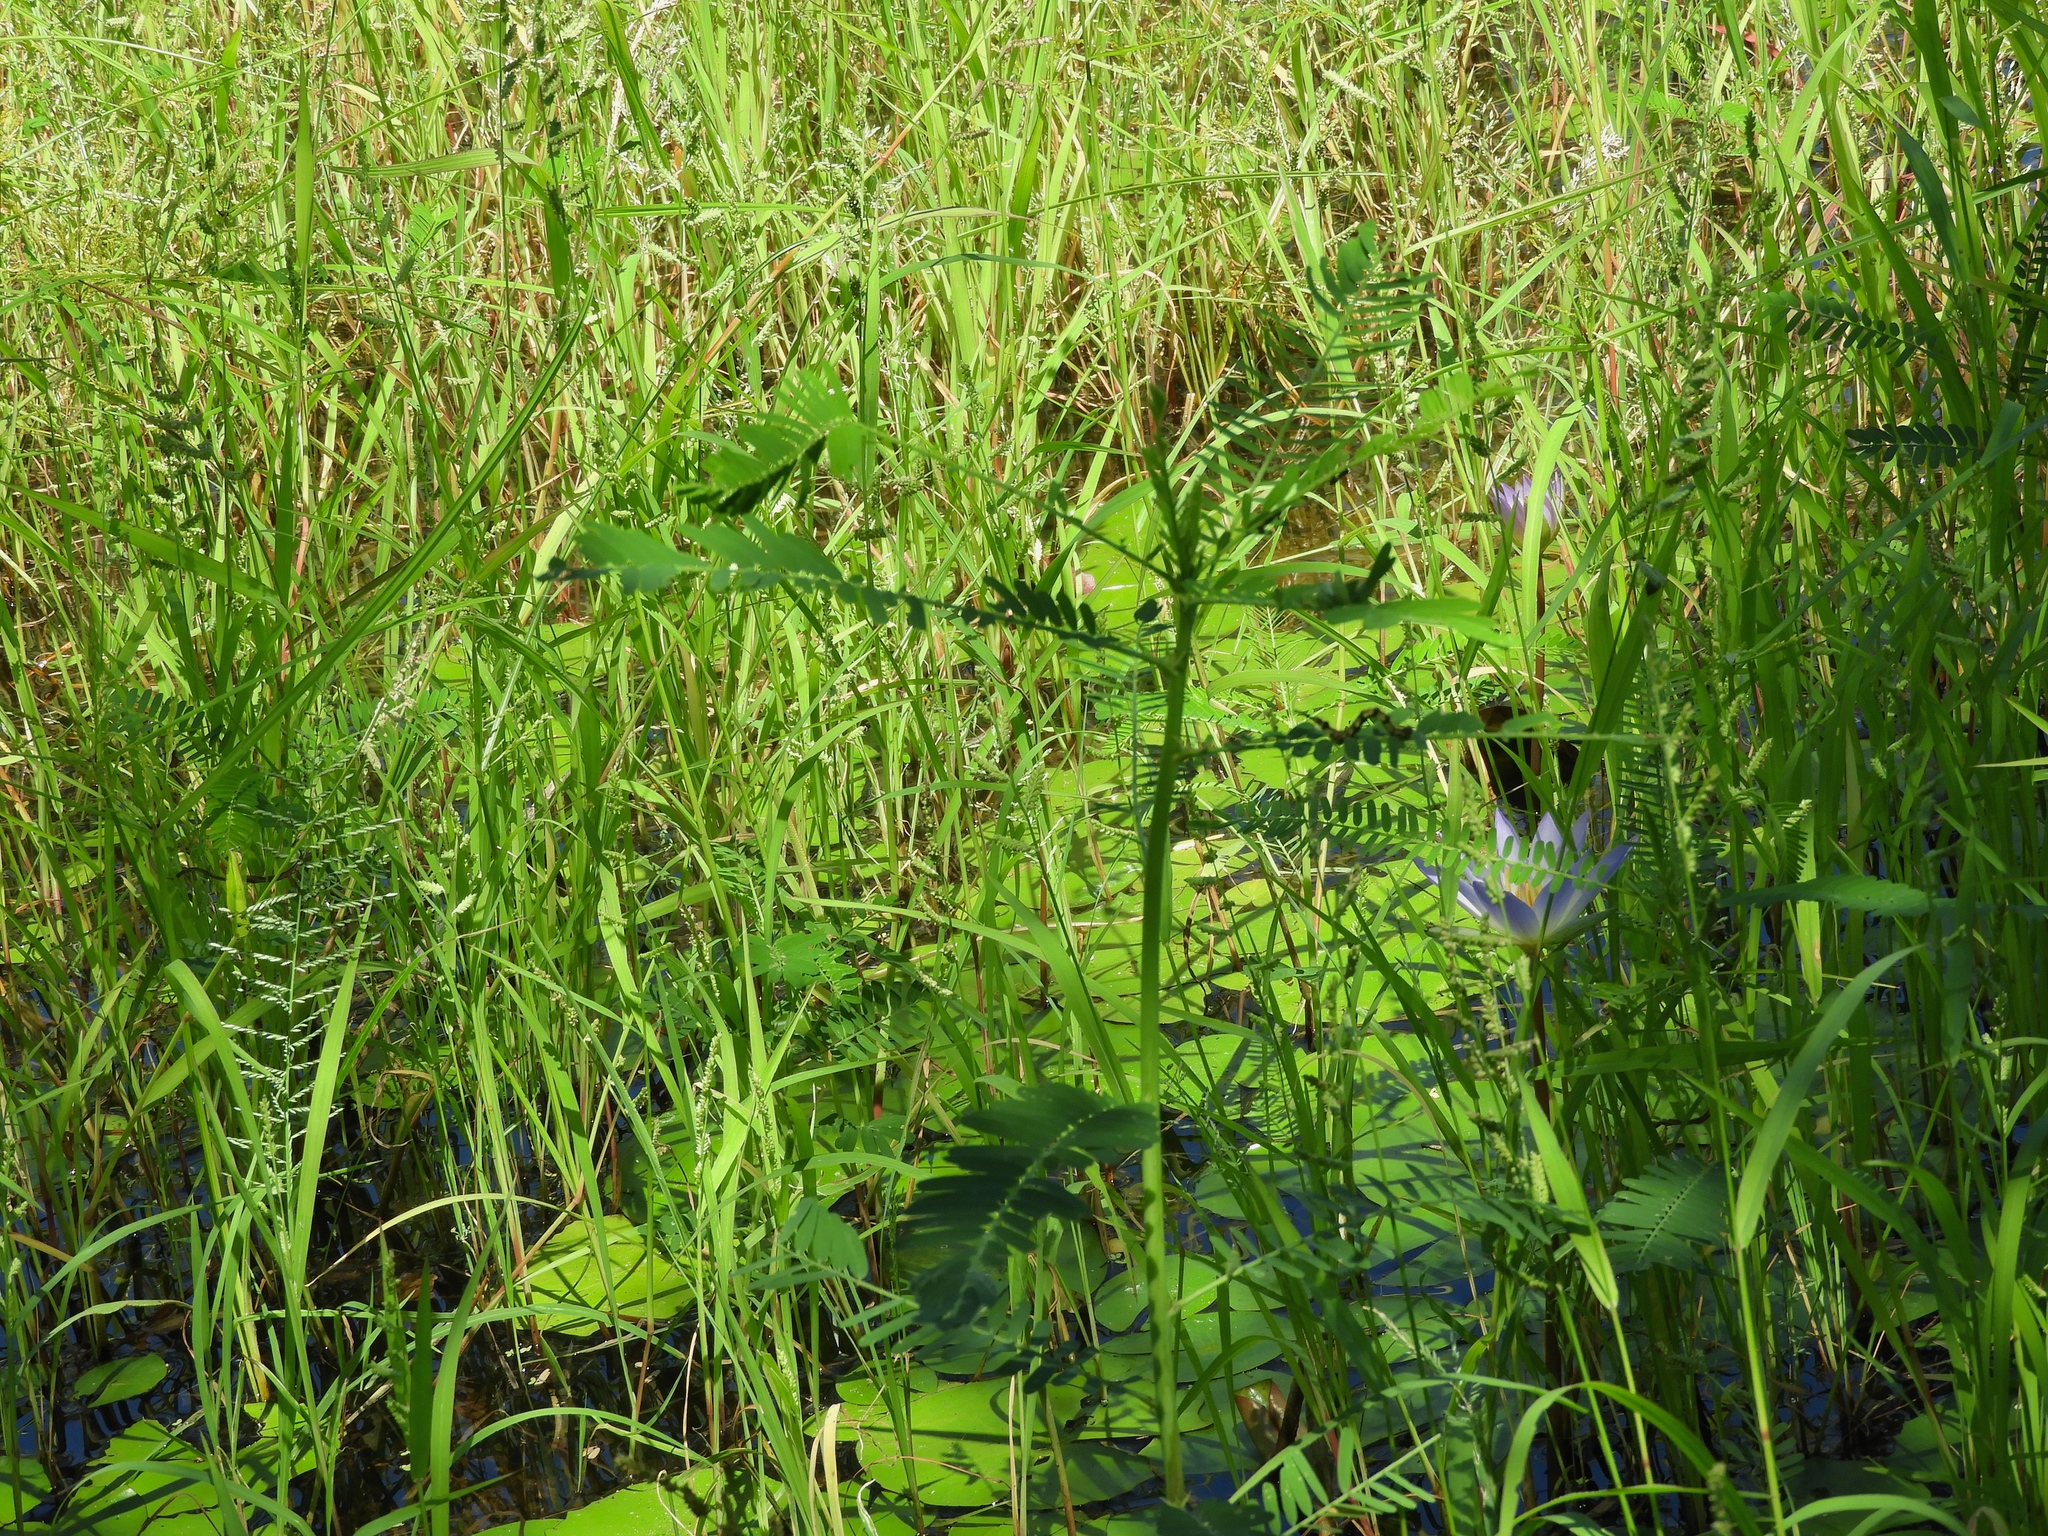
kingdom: Plantae
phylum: Tracheophyta
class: Magnoliopsida
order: Fabales
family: Fabaceae
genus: Sesbania
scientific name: Sesbania herbacea
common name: Bigpod sesbania
